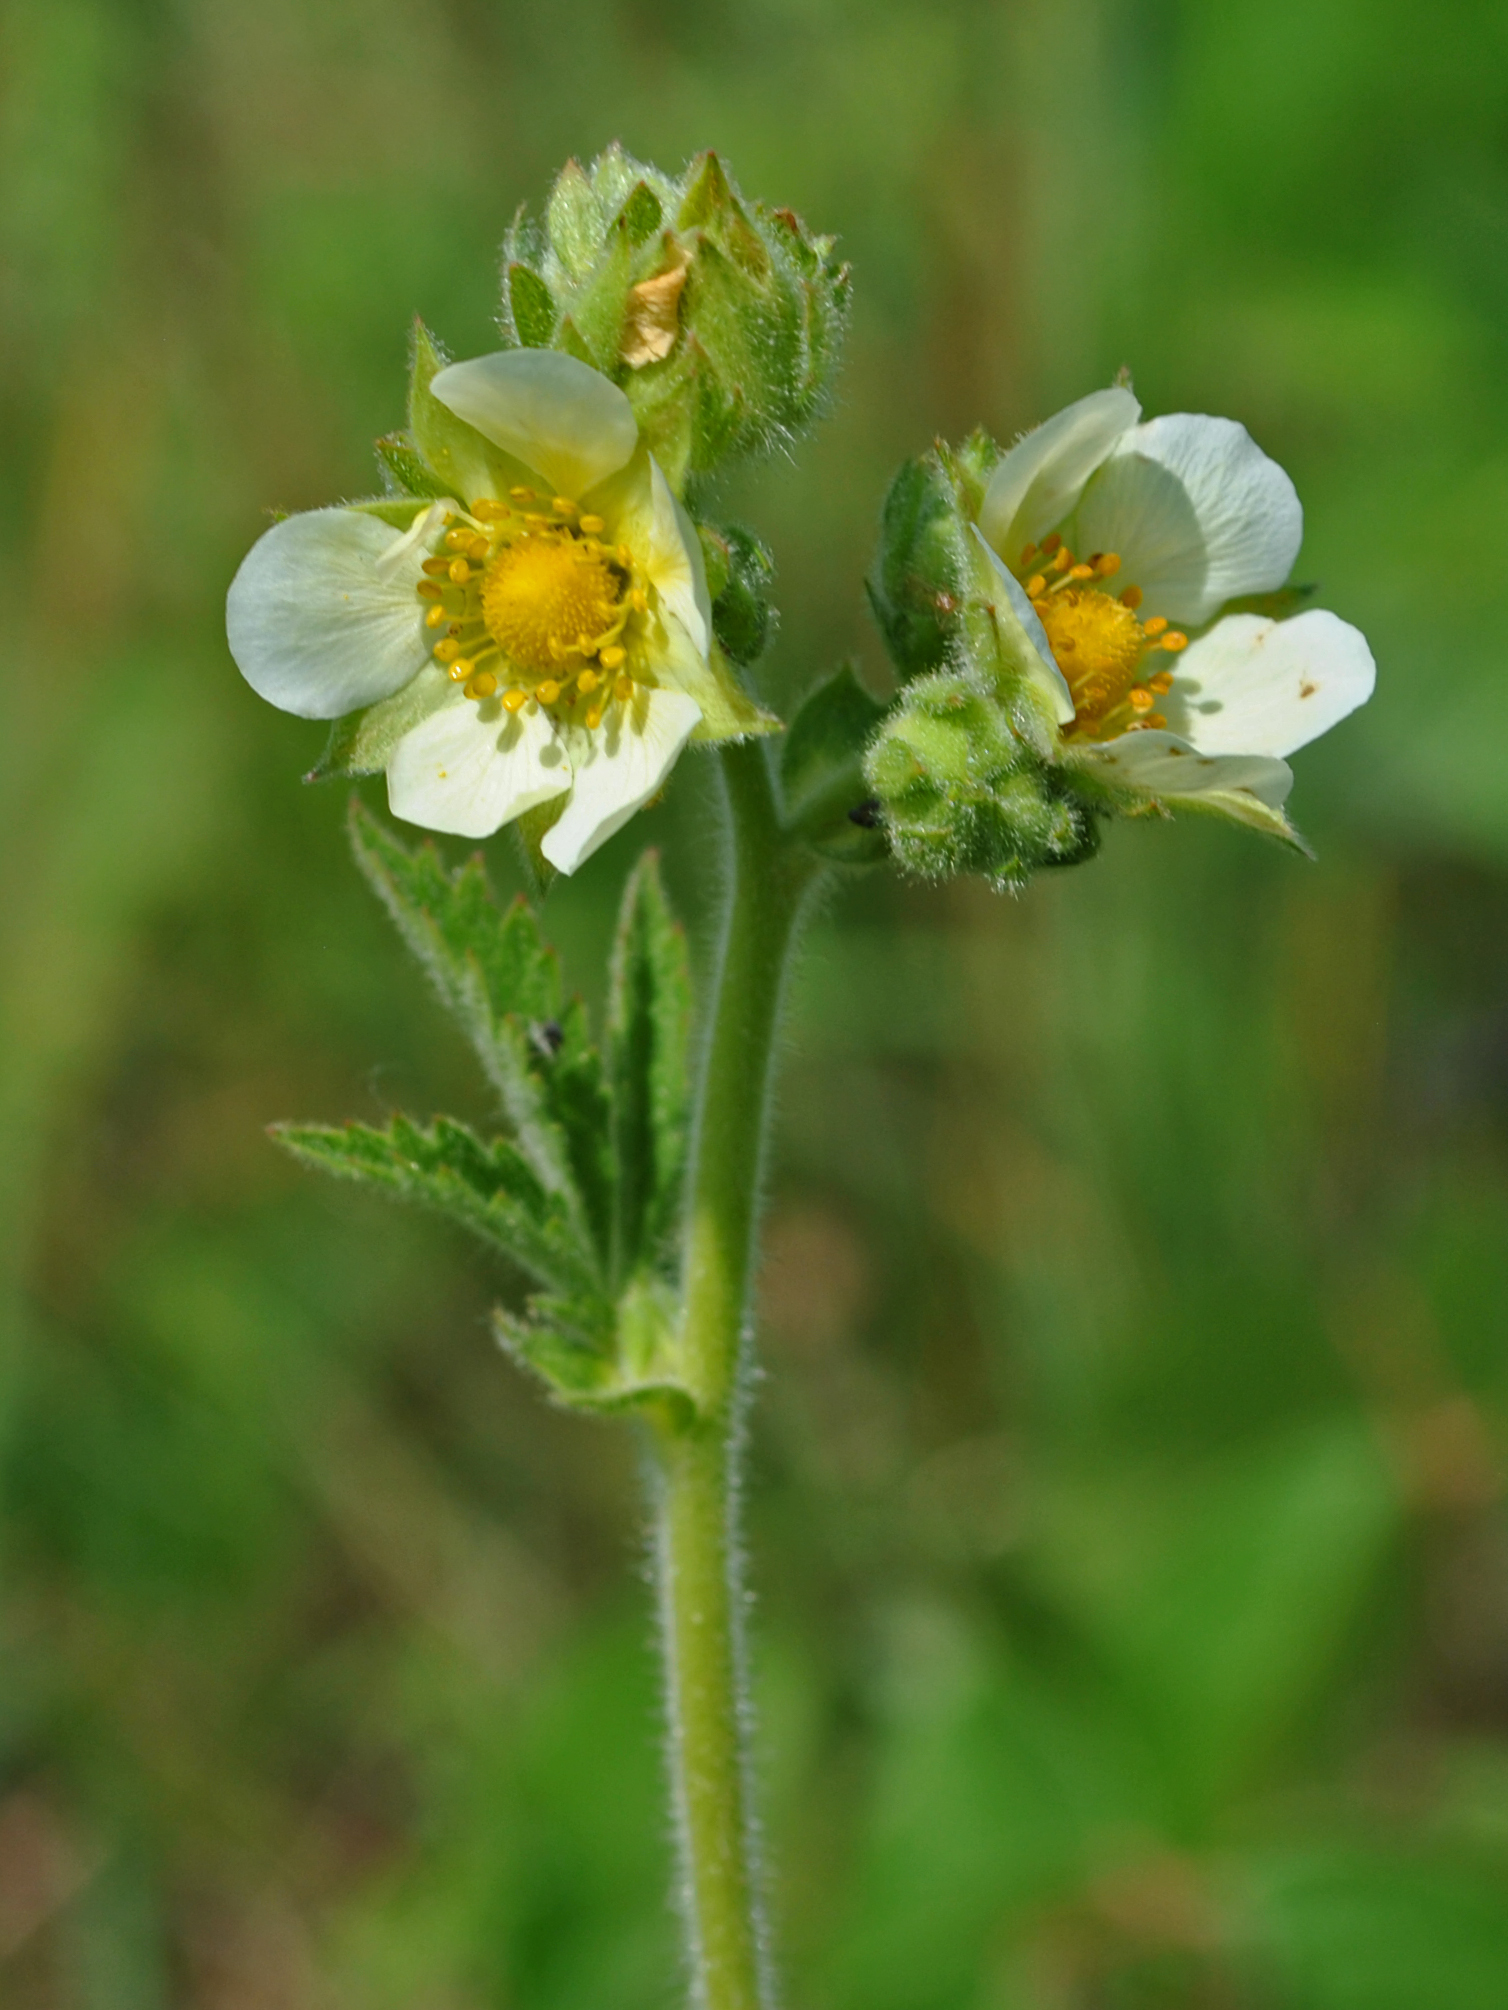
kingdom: Plantae
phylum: Tracheophyta
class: Magnoliopsida
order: Rosales
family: Rosaceae
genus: Drymocallis
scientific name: Drymocallis arguta
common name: Tall cinquefoil
